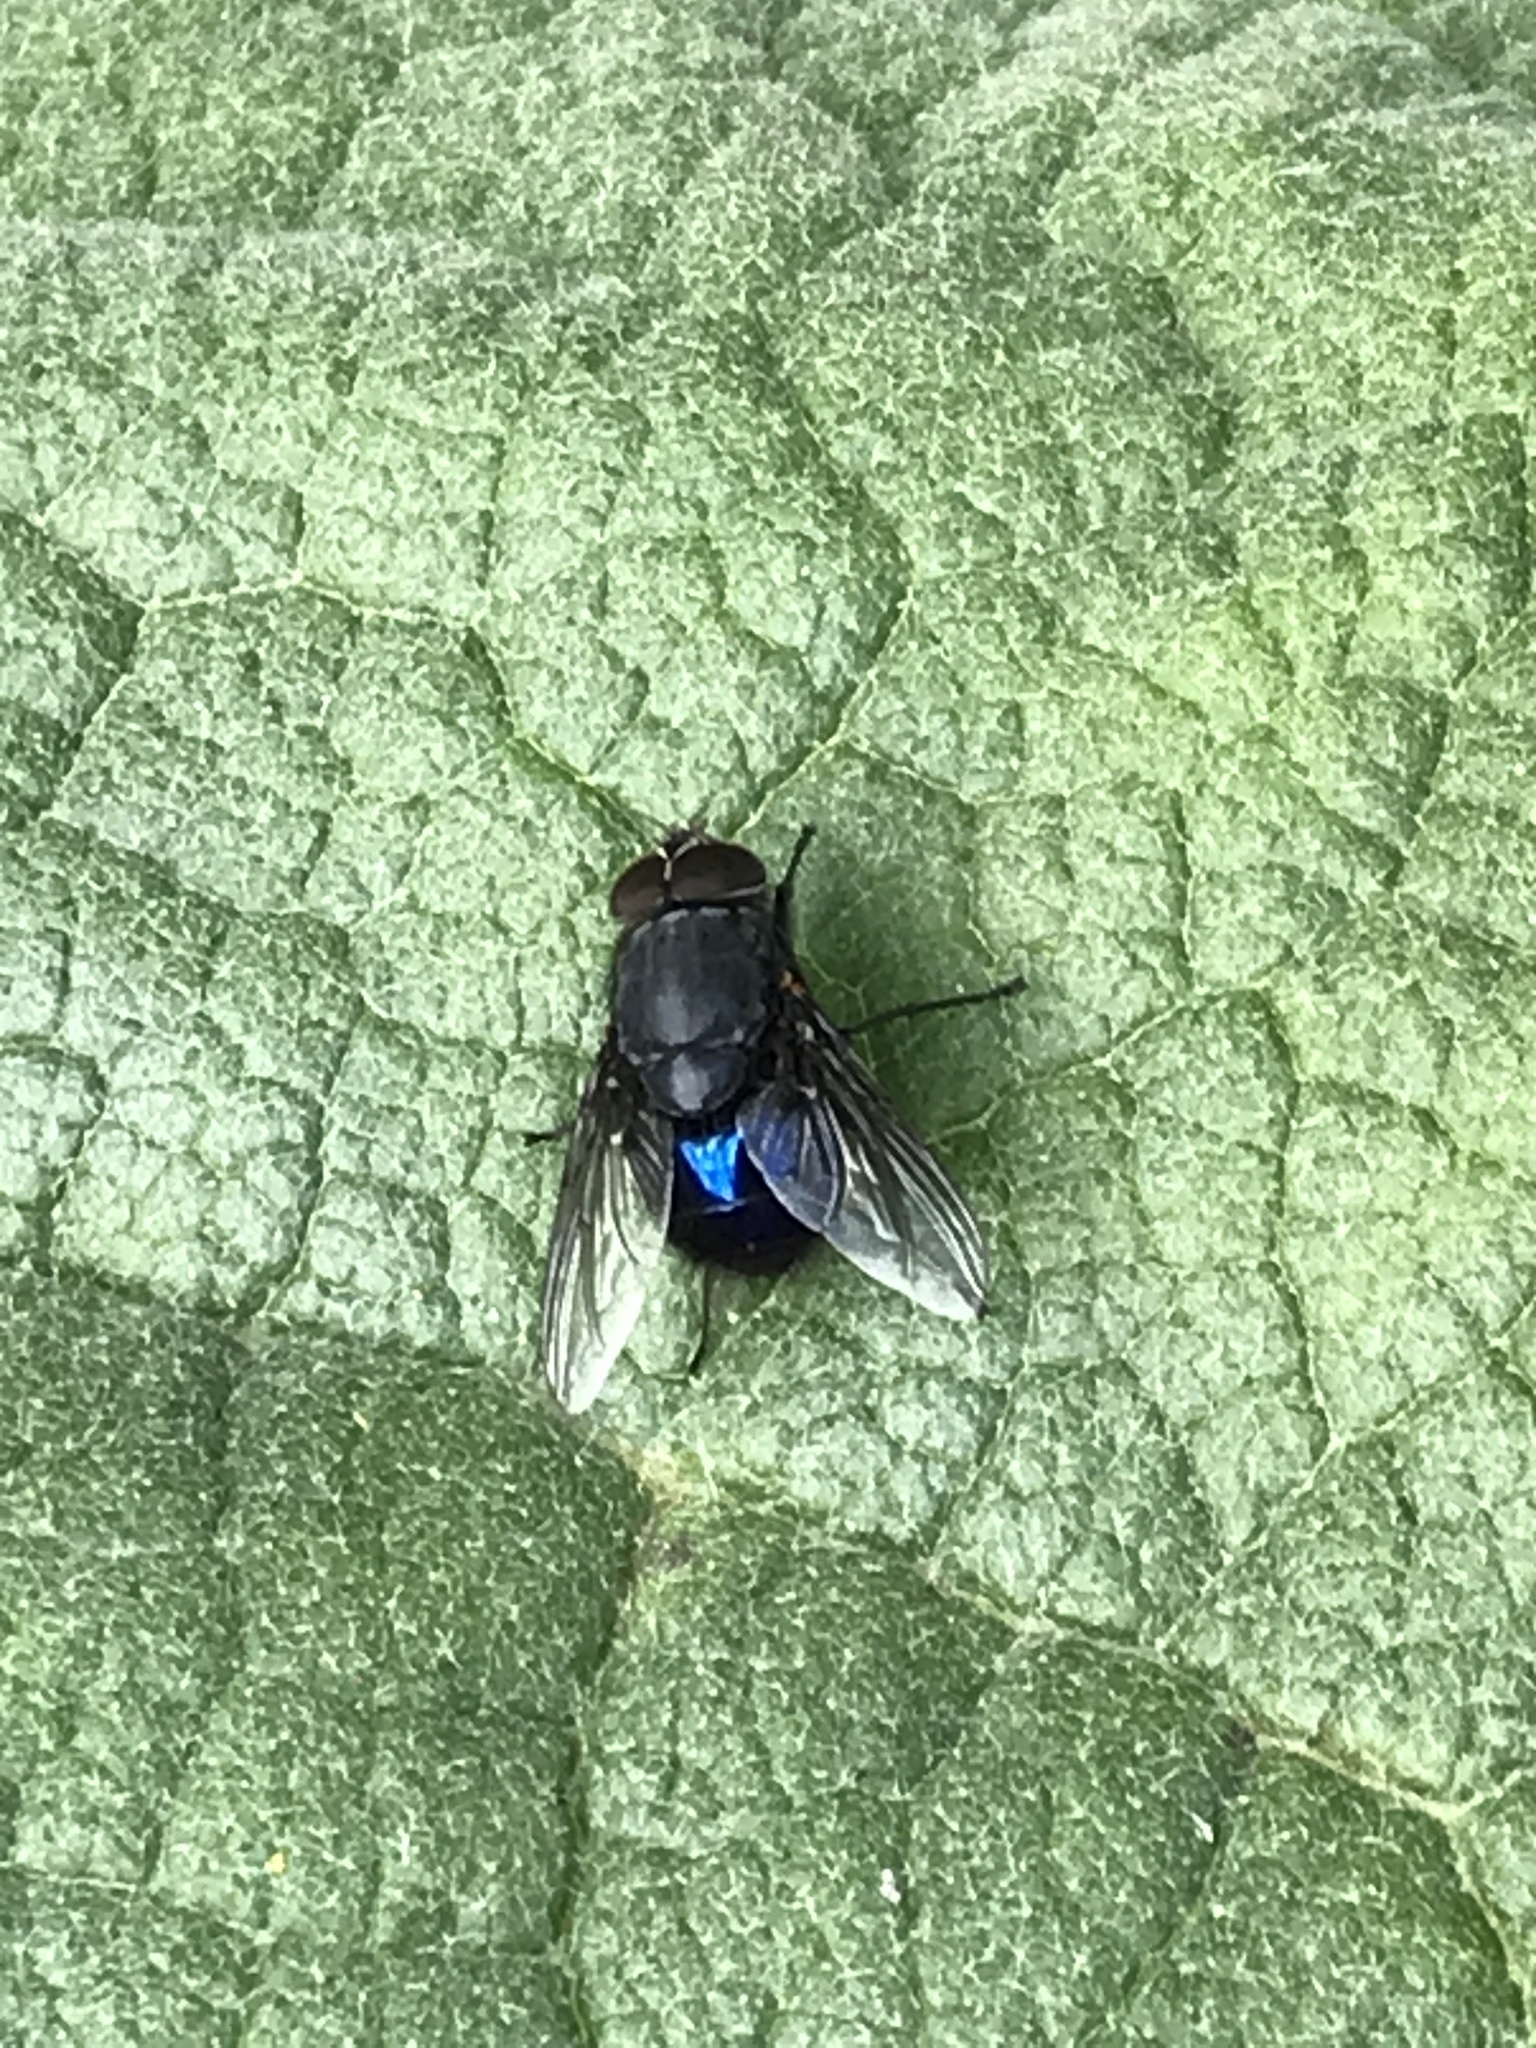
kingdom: Animalia
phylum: Arthropoda
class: Insecta
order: Diptera
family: Calliphoridae
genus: Calliphora
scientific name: Calliphora quadrimaculata
